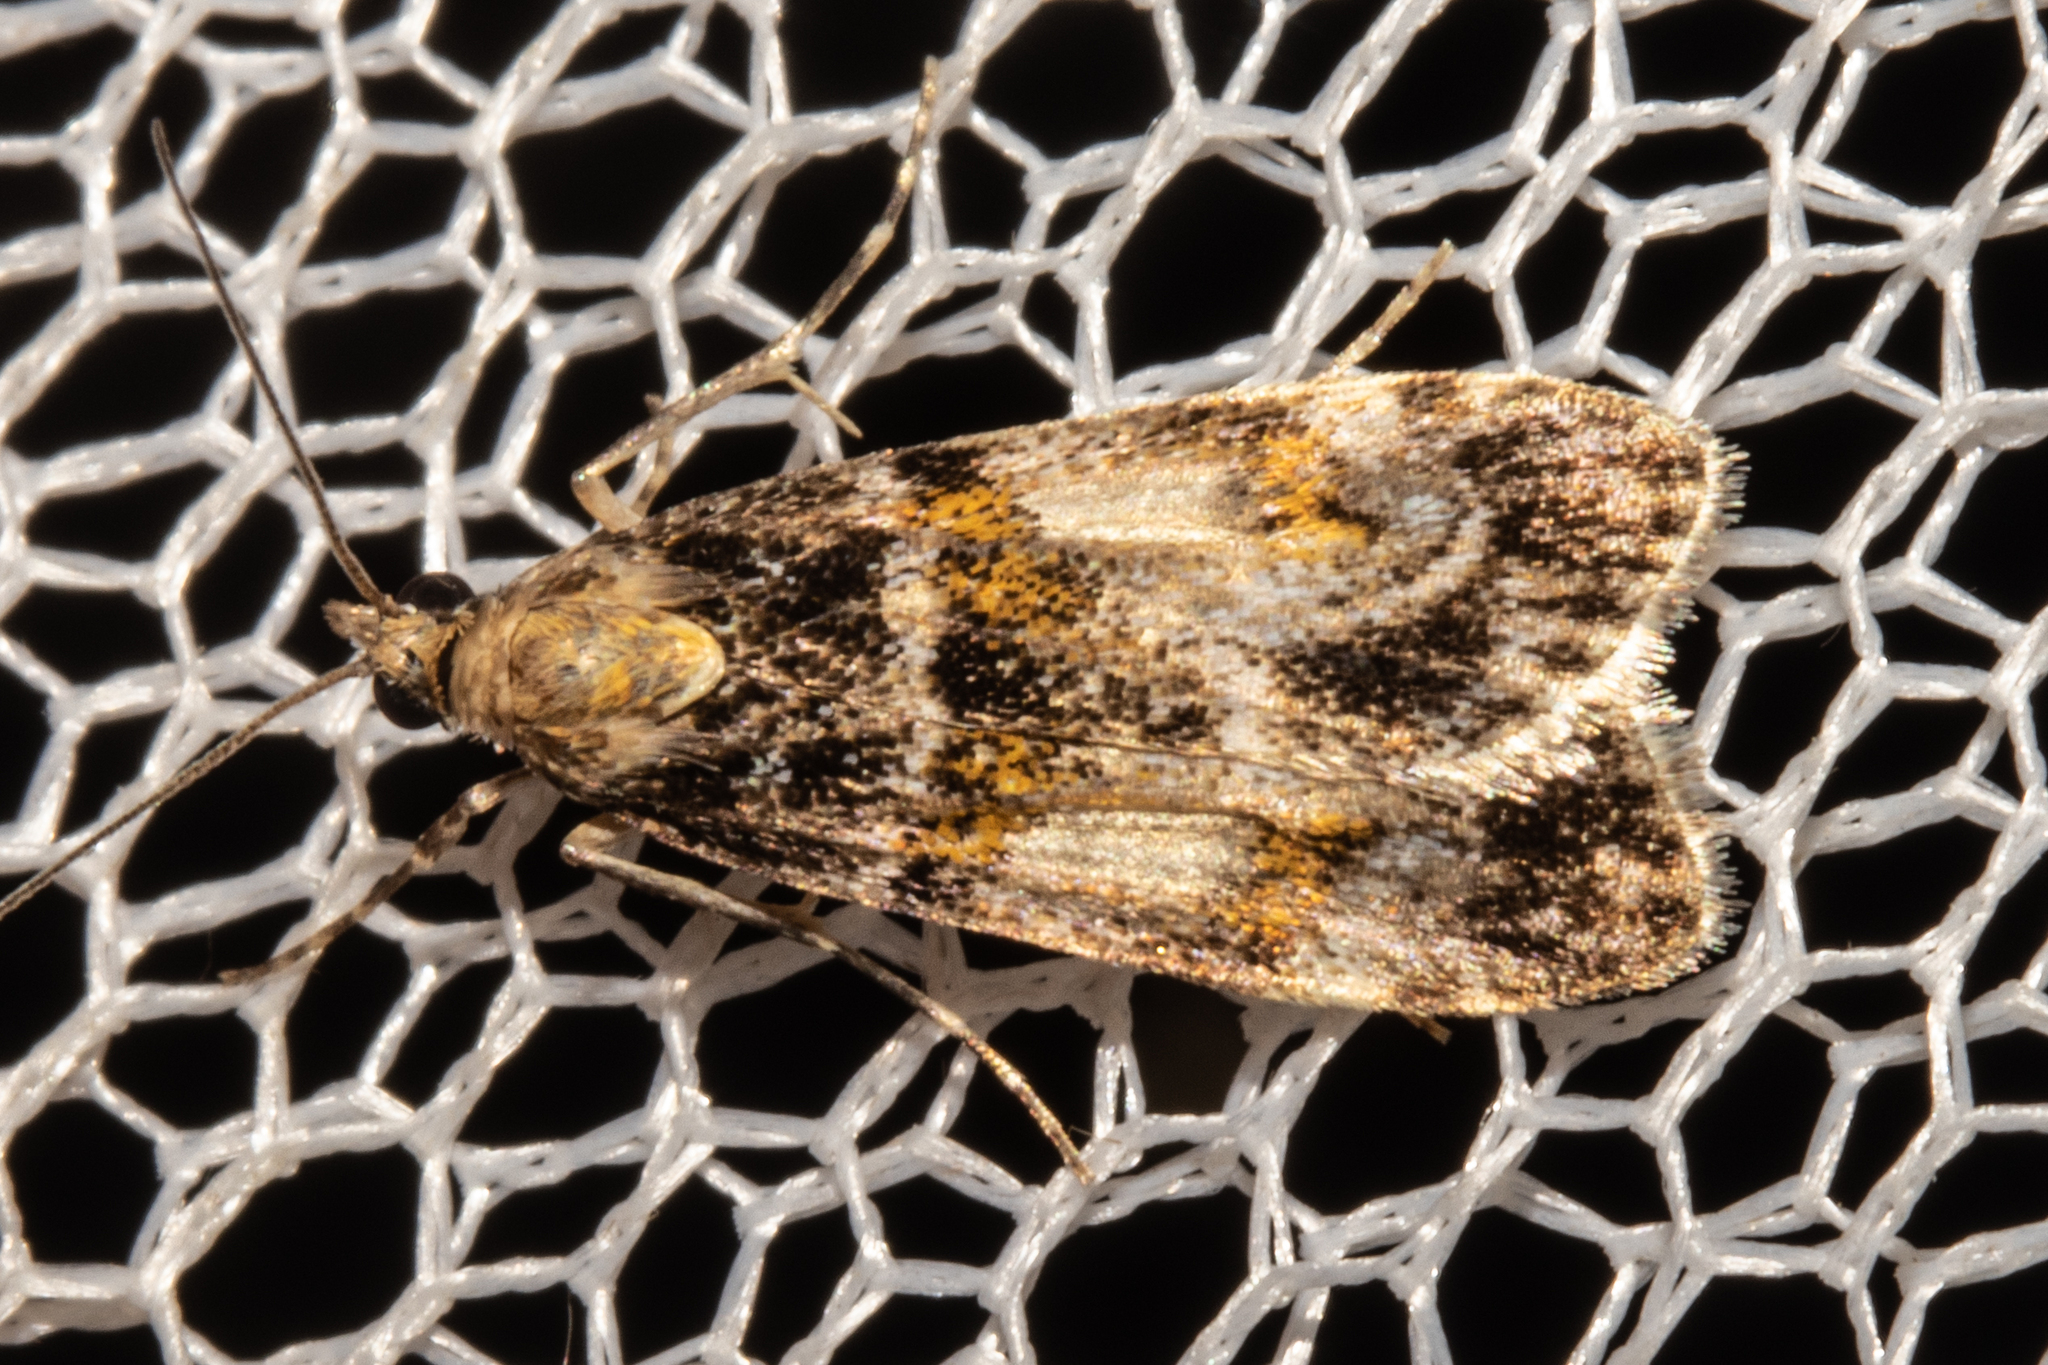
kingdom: Animalia
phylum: Arthropoda
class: Insecta
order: Lepidoptera
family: Crambidae
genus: Eudonia
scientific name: Eudonia thyridias
